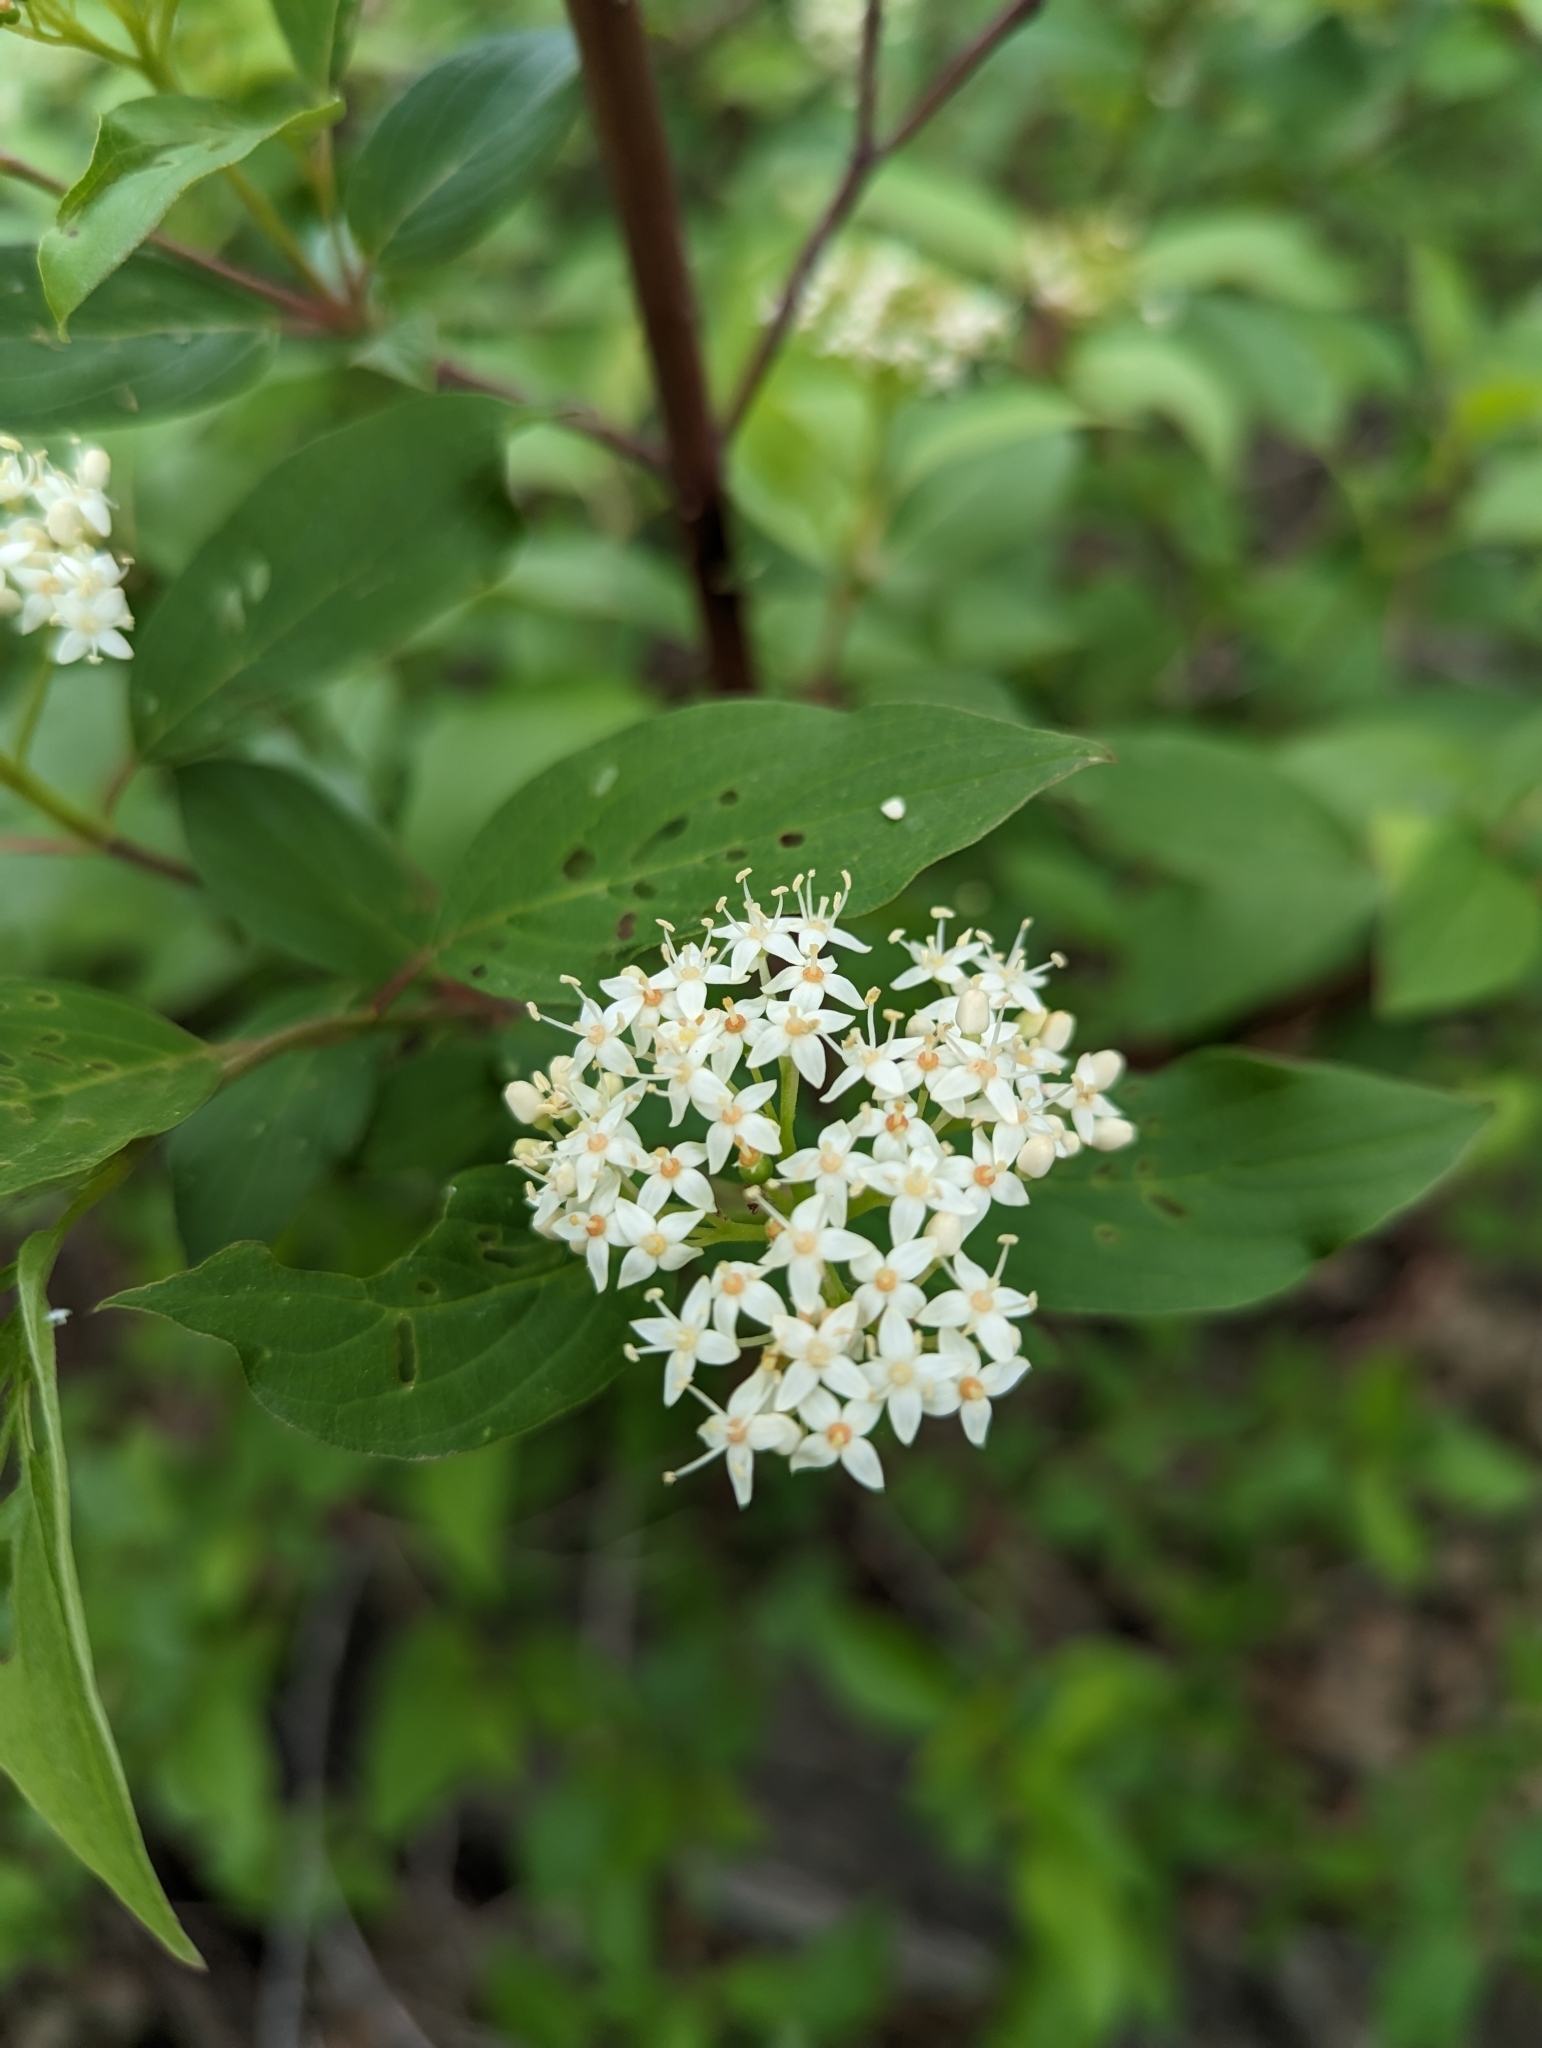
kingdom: Plantae
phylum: Tracheophyta
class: Magnoliopsida
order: Cornales
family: Cornaceae
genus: Cornus
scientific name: Cornus sericea
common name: Red-osier dogwood
